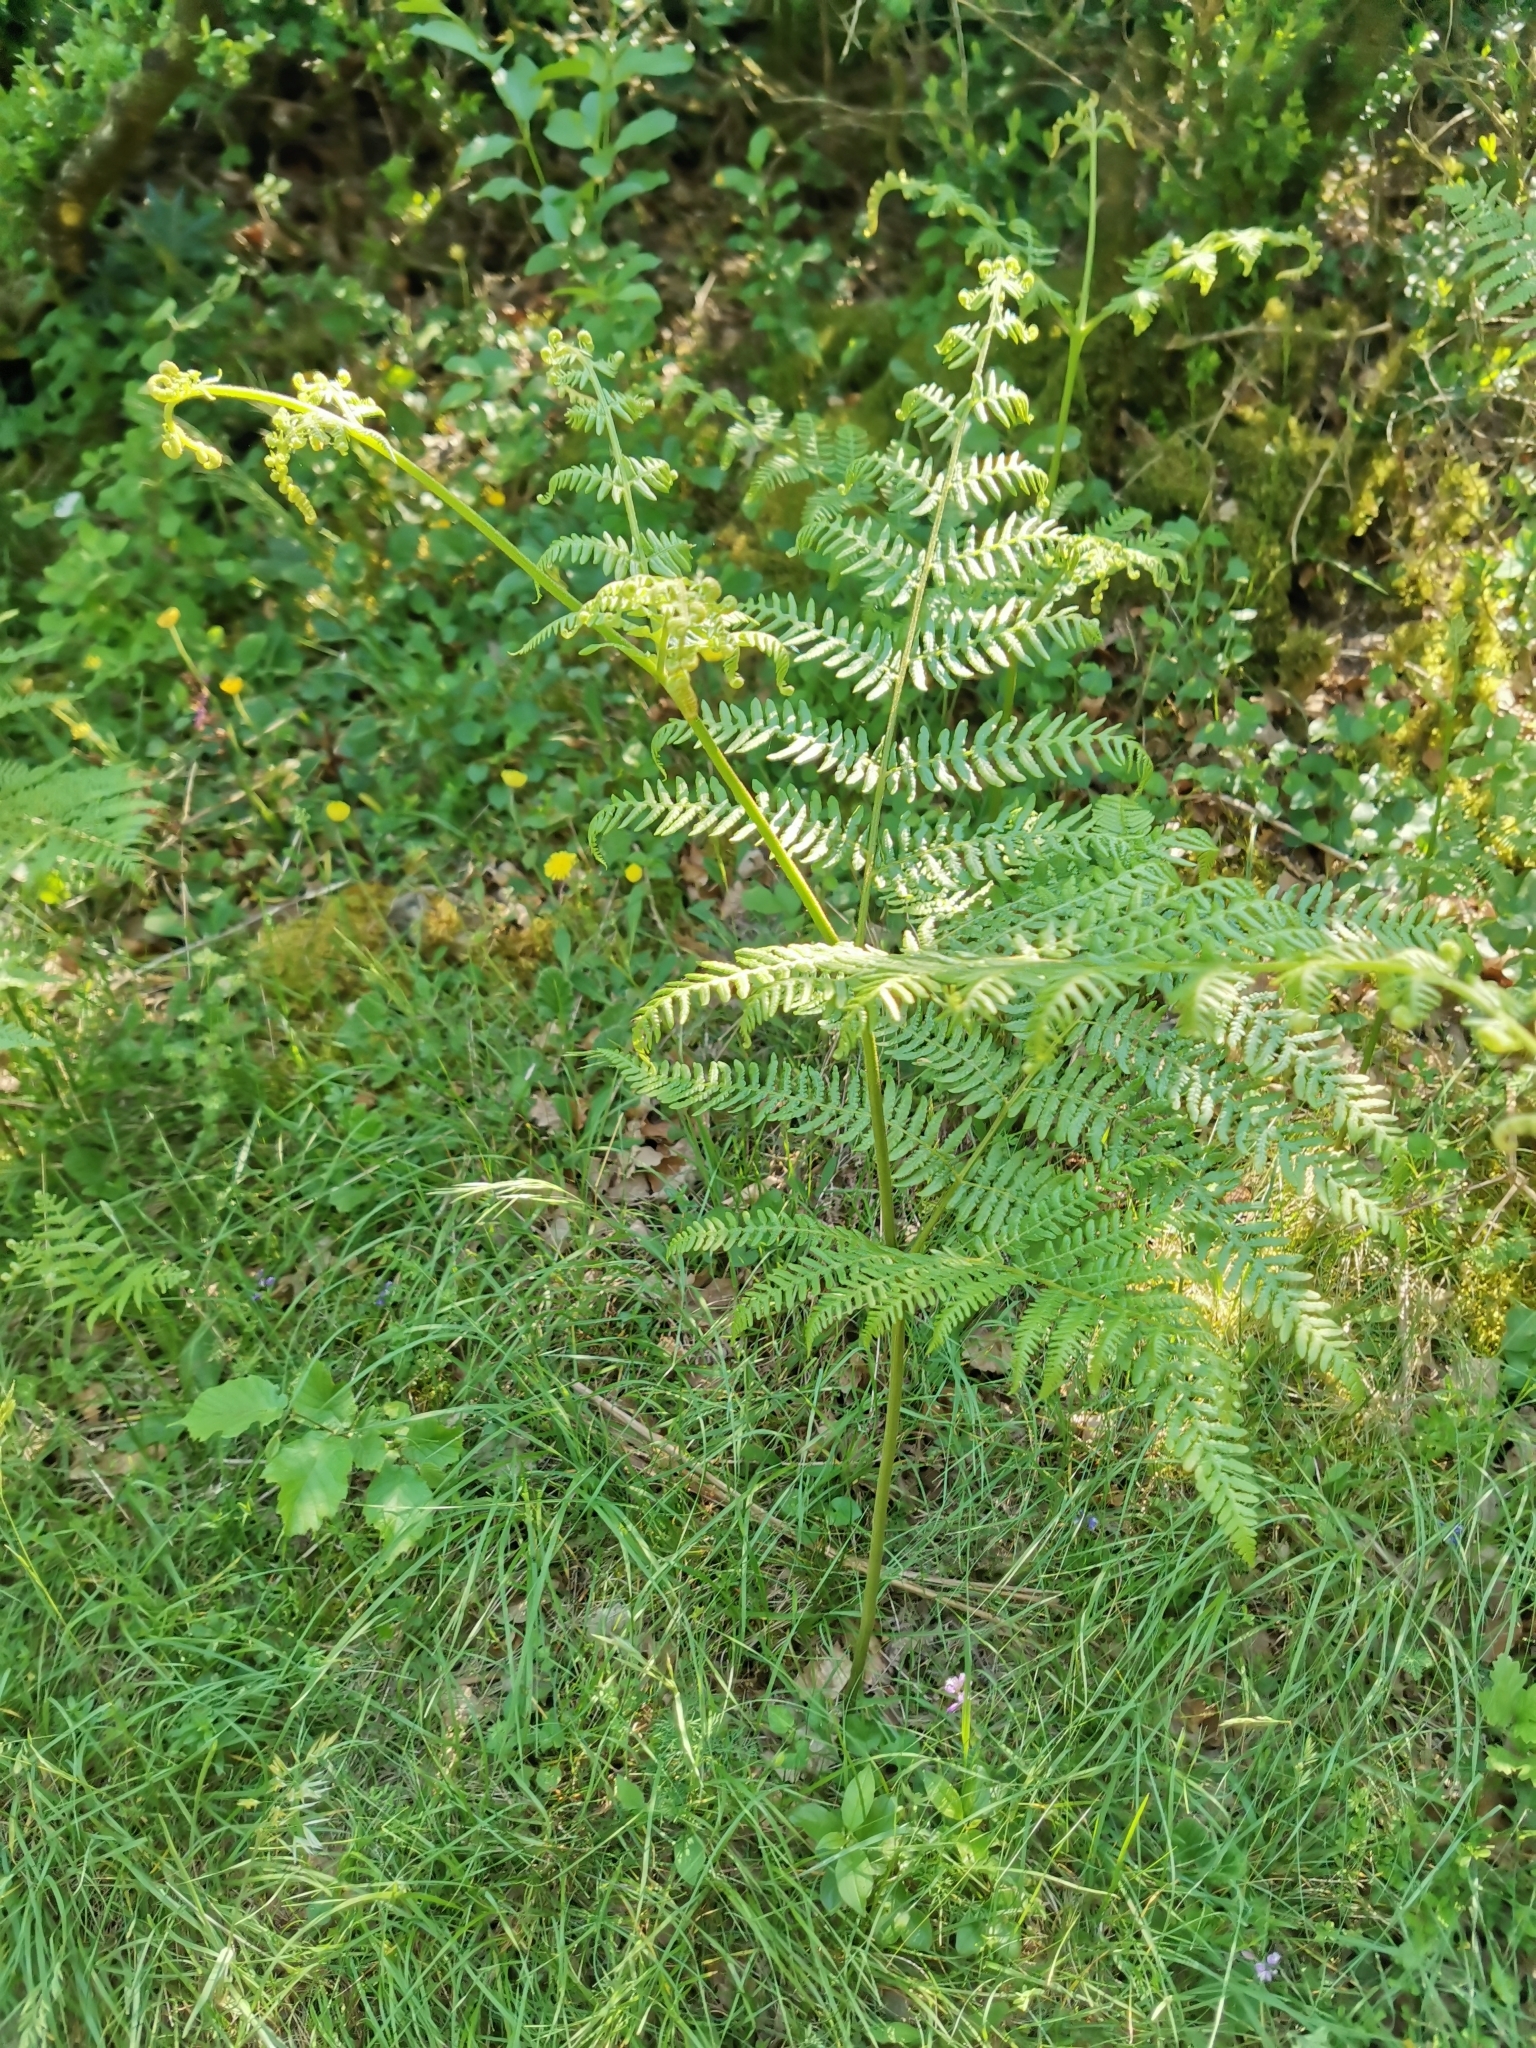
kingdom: Plantae
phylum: Tracheophyta
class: Polypodiopsida
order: Polypodiales
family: Dennstaedtiaceae
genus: Pteridium
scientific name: Pteridium aquilinum
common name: Bracken
